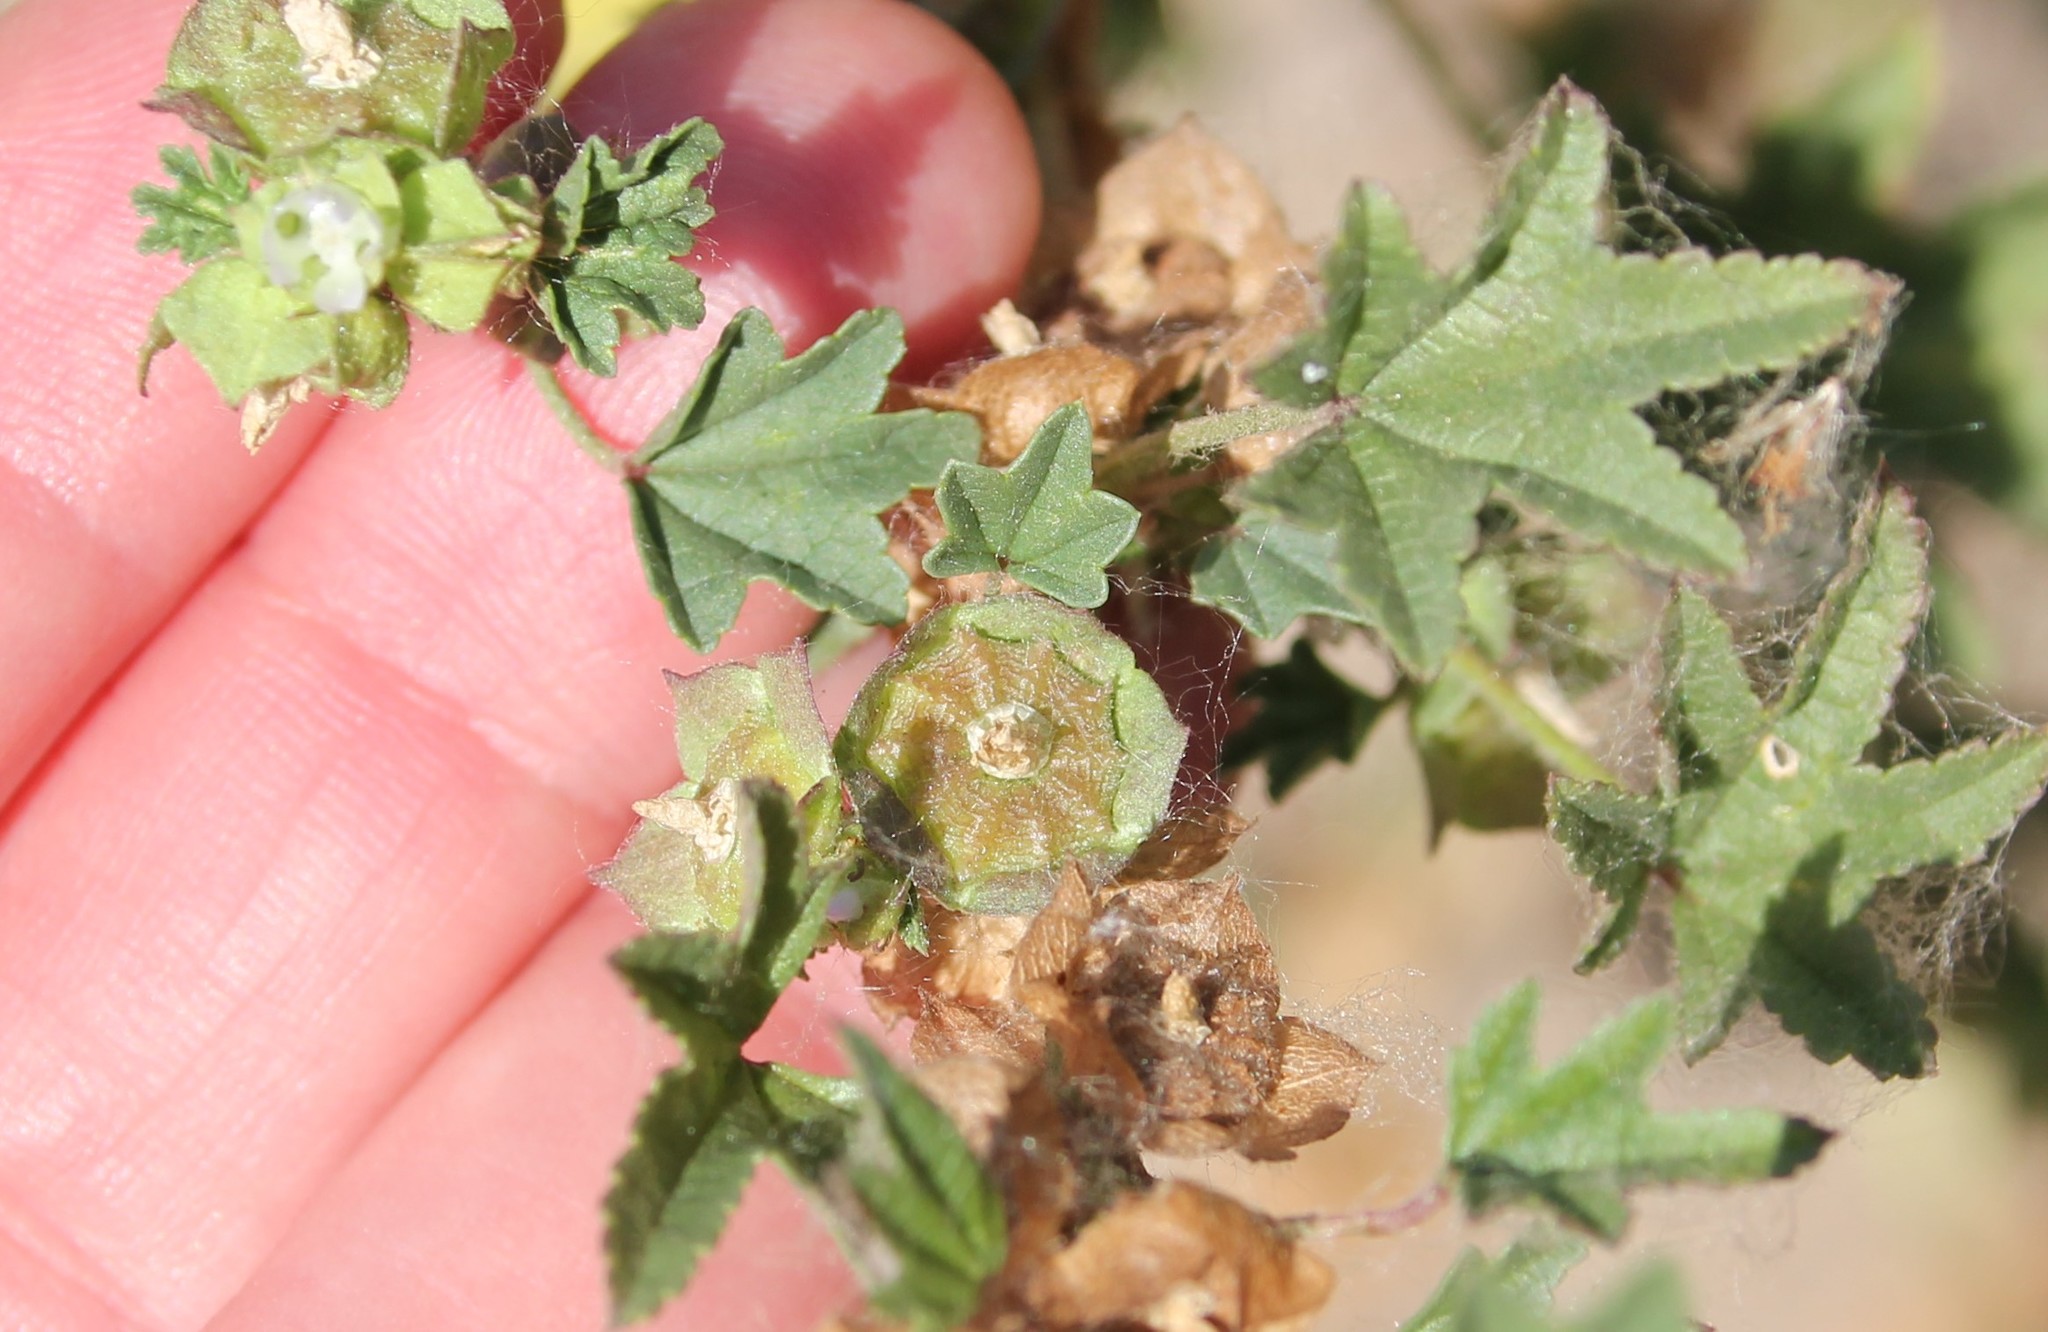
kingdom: Plantae
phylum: Tracheophyta
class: Magnoliopsida
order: Malvales
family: Malvaceae
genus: Malva
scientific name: Malva parviflora
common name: Least mallow
